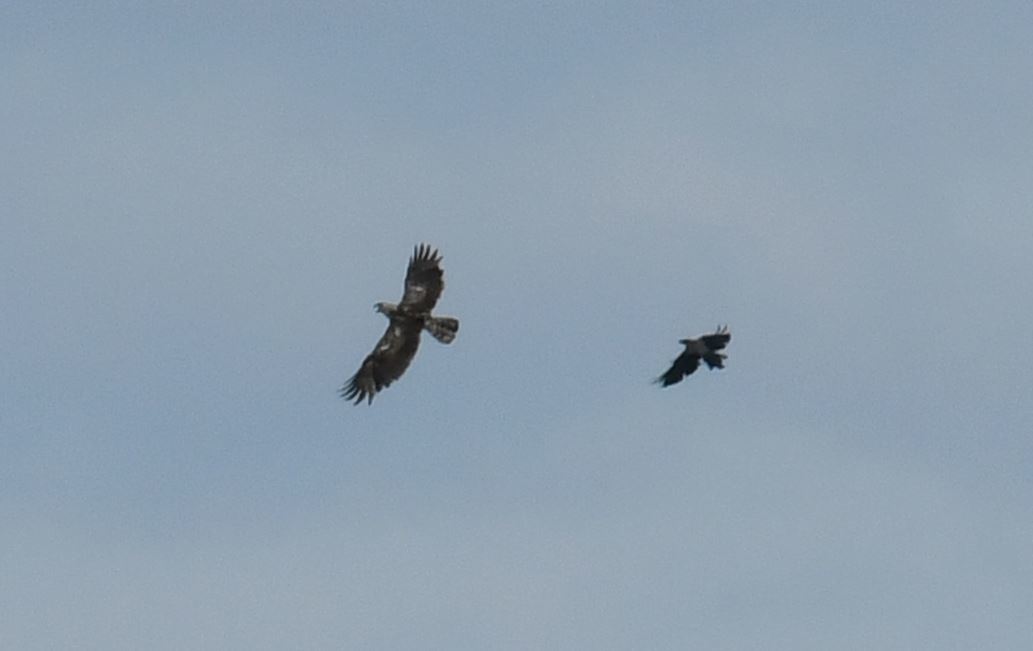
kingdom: Animalia
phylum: Chordata
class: Aves
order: Accipitriformes
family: Accipitridae
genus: Circaetus
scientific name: Circaetus gallicus
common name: Short-toed snake eagle
